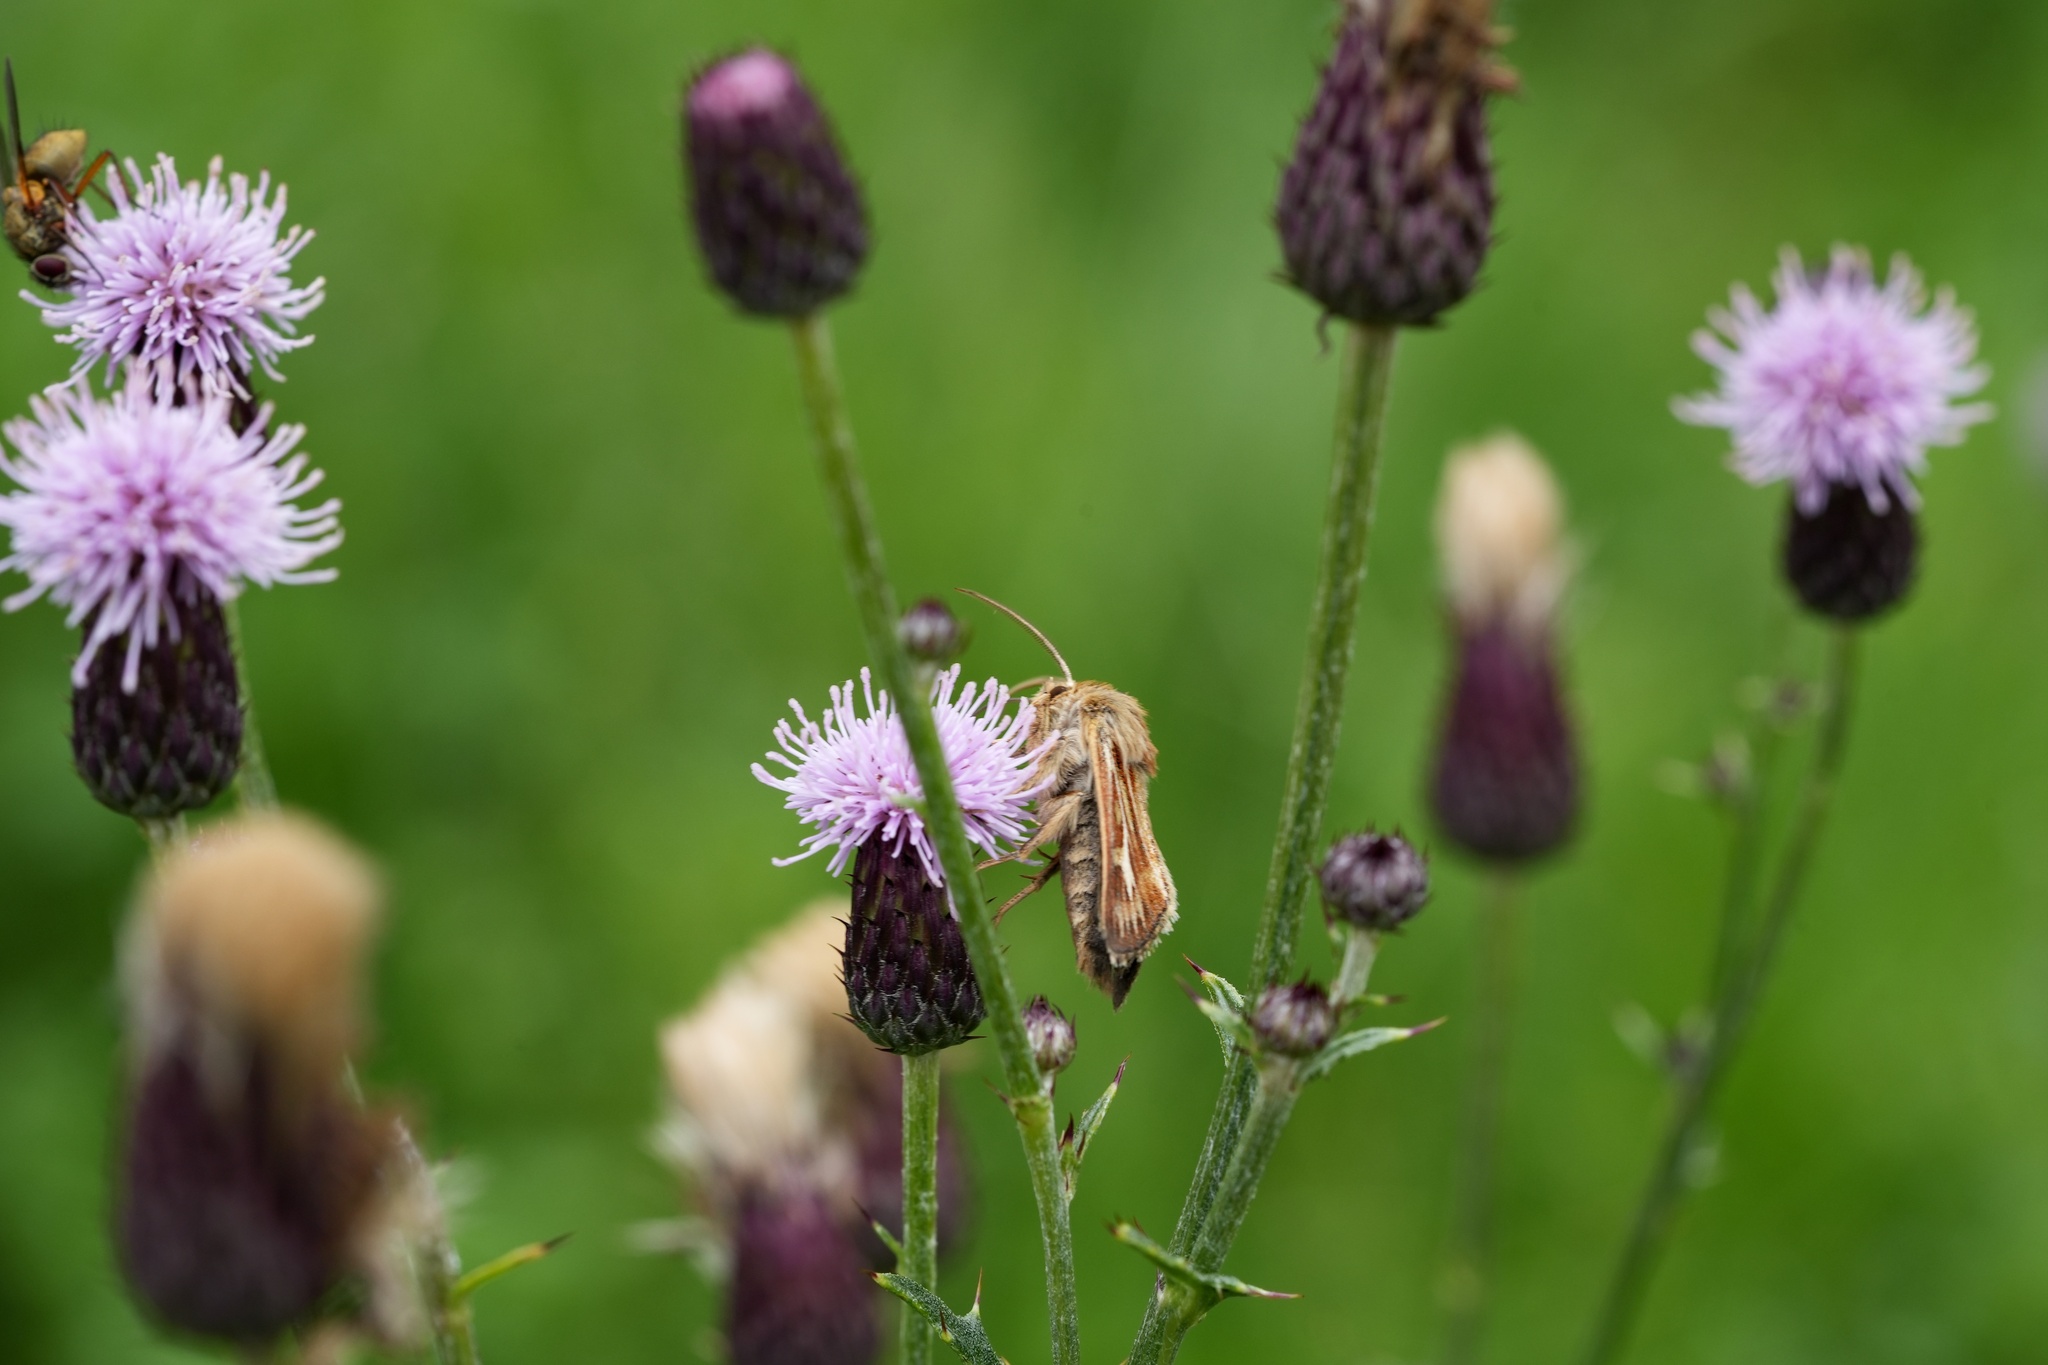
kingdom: Animalia
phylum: Arthropoda
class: Insecta
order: Lepidoptera
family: Noctuidae
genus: Cerapteryx
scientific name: Cerapteryx graminis
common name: Antler moth
